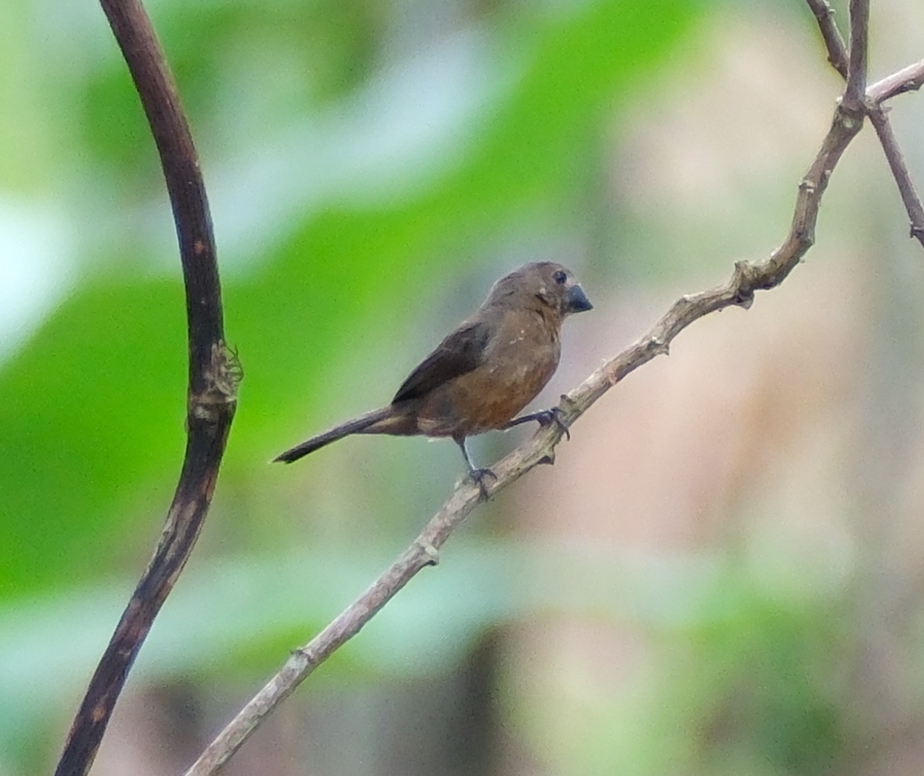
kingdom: Animalia
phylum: Chordata
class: Aves
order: Passeriformes
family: Thraupidae
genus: Sporophila
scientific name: Sporophila angolensis
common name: Chestnut-bellied seed-finch
